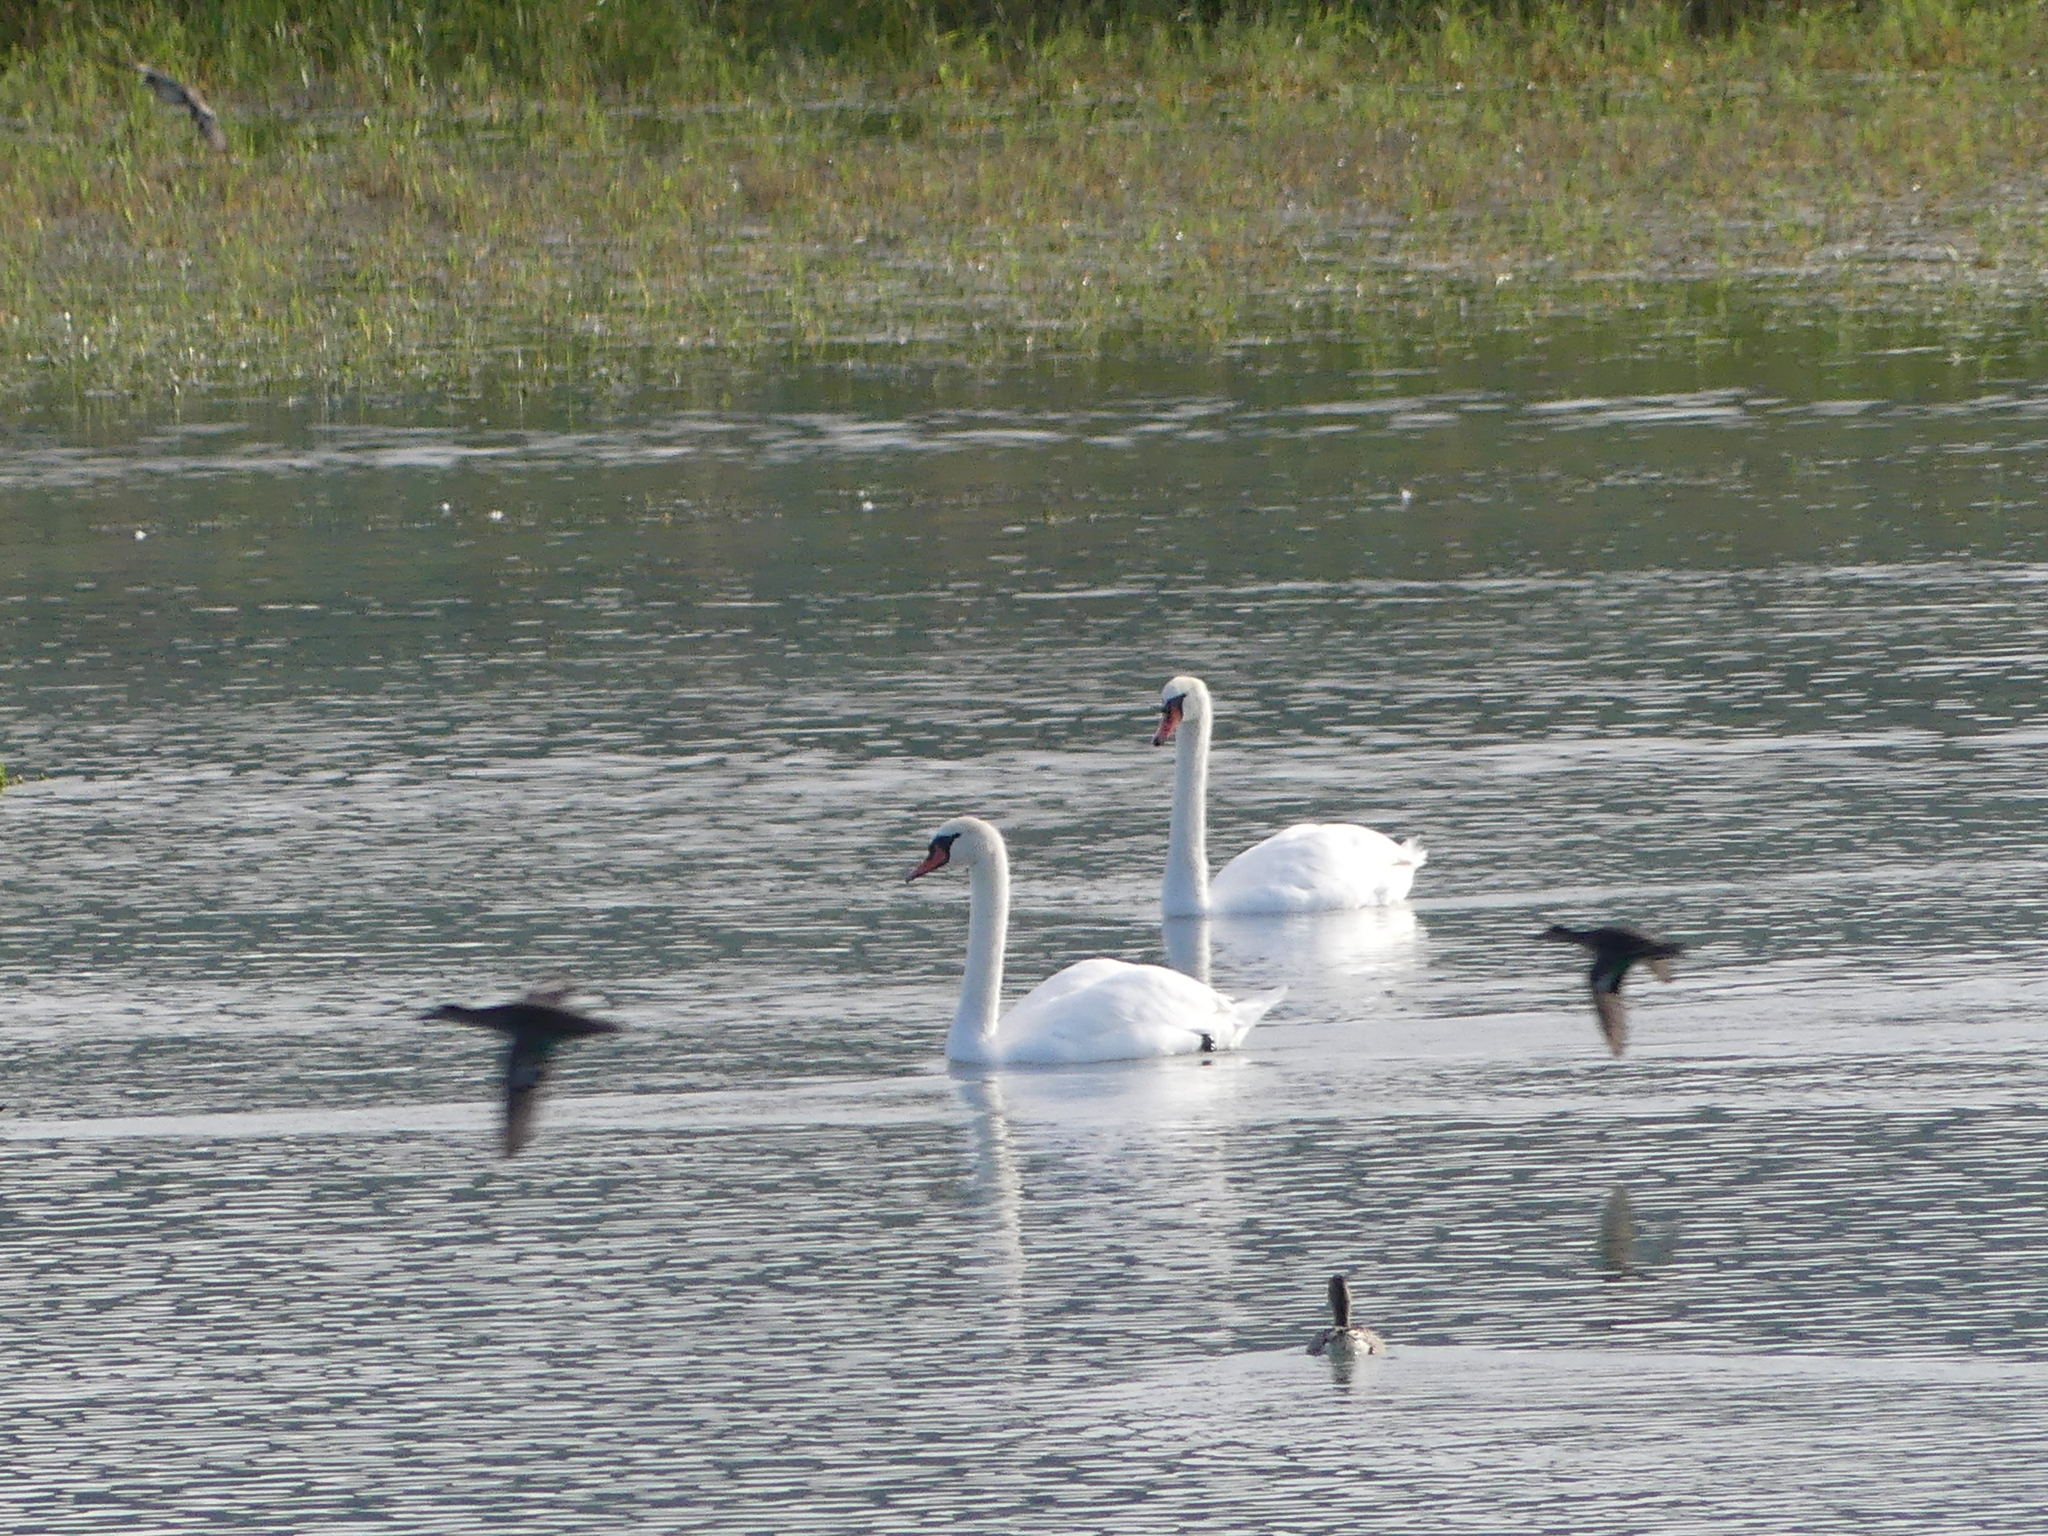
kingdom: Animalia
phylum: Chordata
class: Aves
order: Anseriformes
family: Anatidae
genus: Cygnus
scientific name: Cygnus olor
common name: Mute swan
